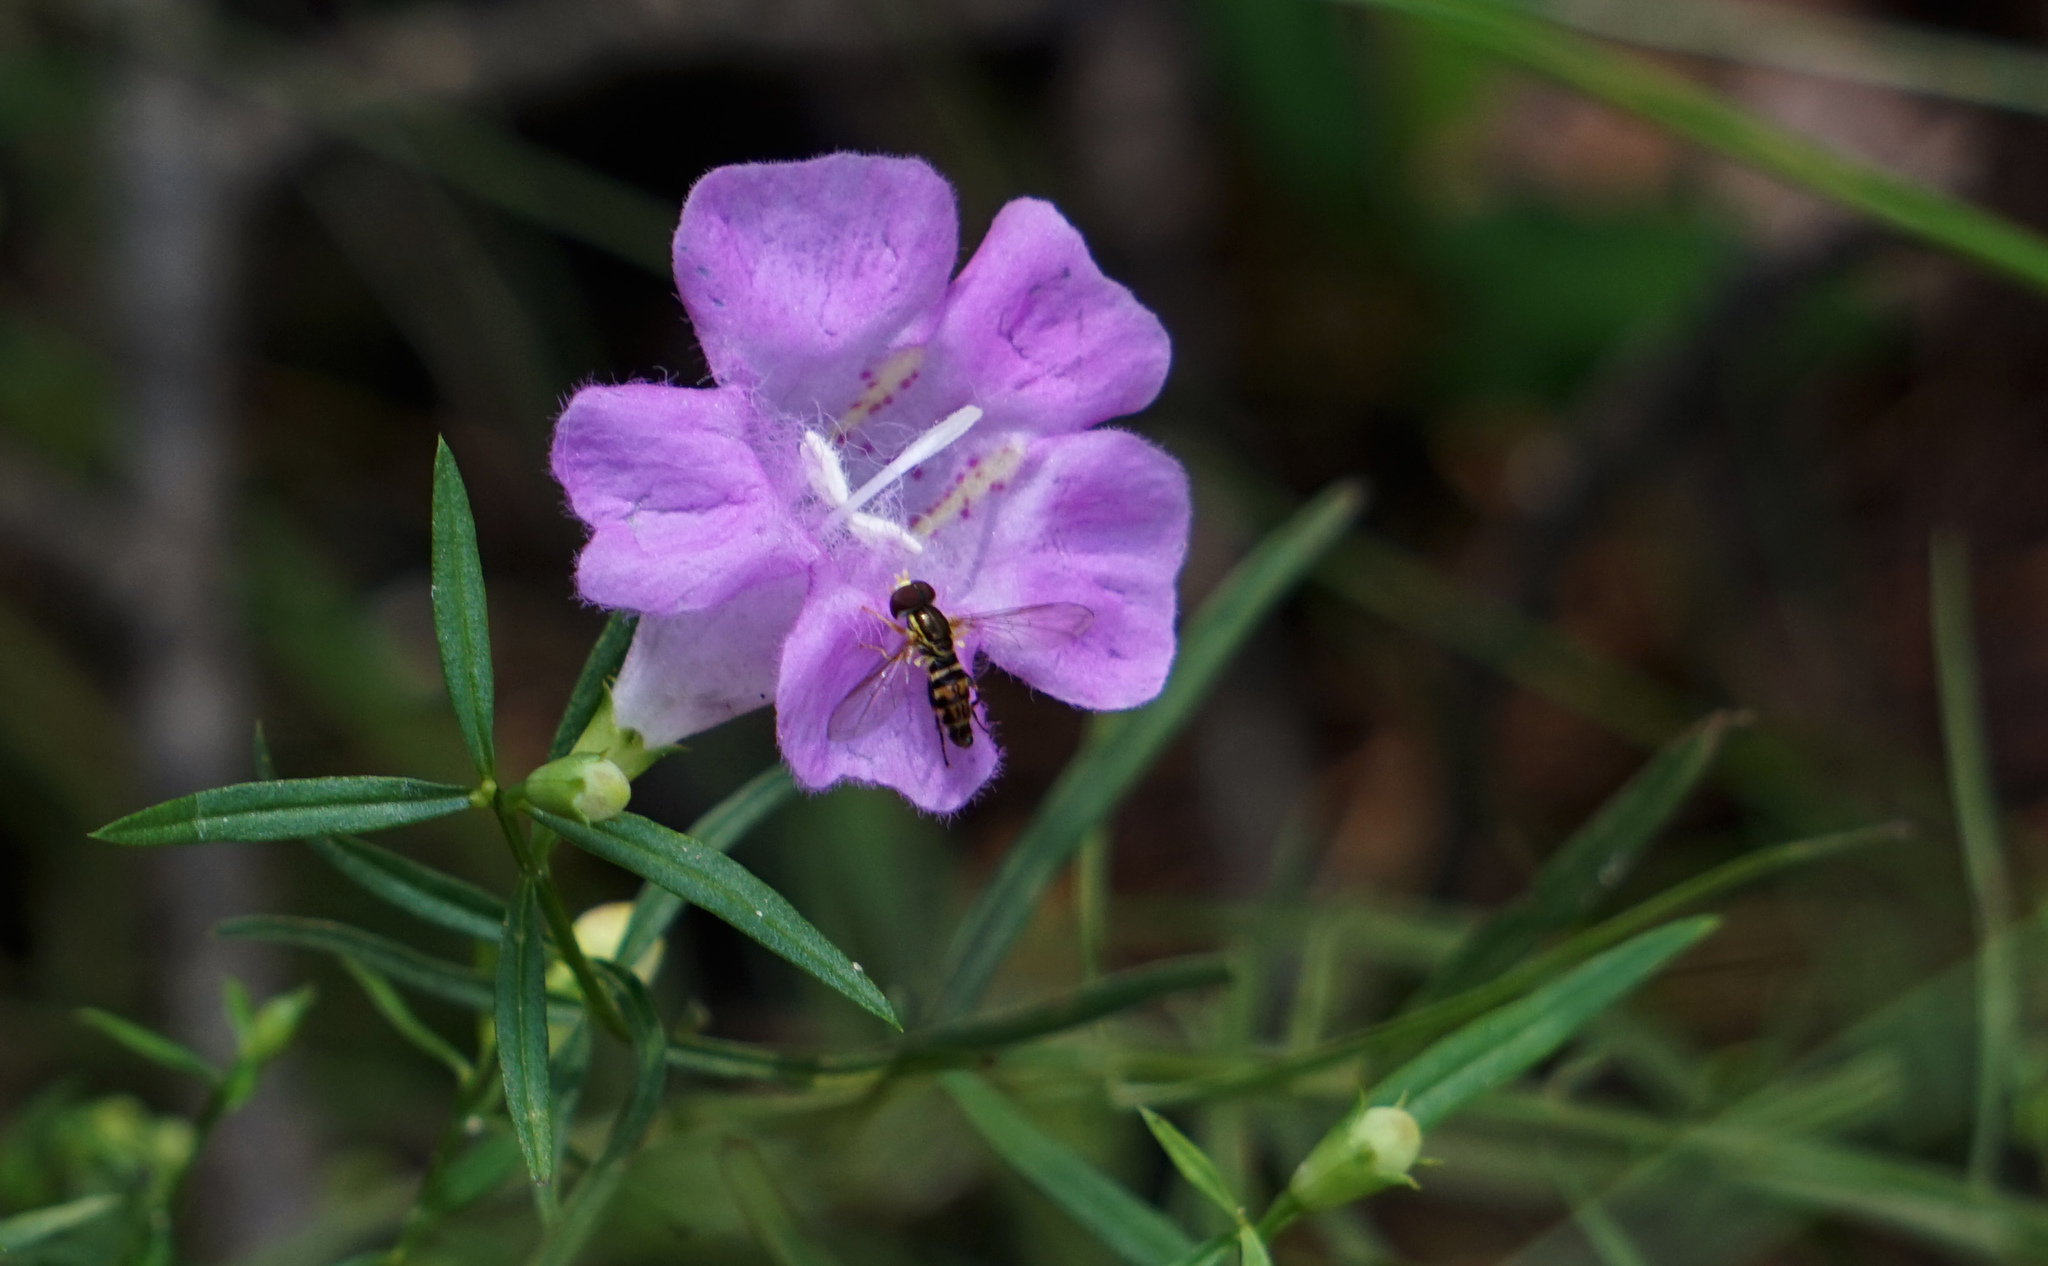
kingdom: Animalia
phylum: Arthropoda
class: Insecta
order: Diptera
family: Syrphidae
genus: Toxomerus
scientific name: Toxomerus geminatus
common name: Eastern calligrapher
